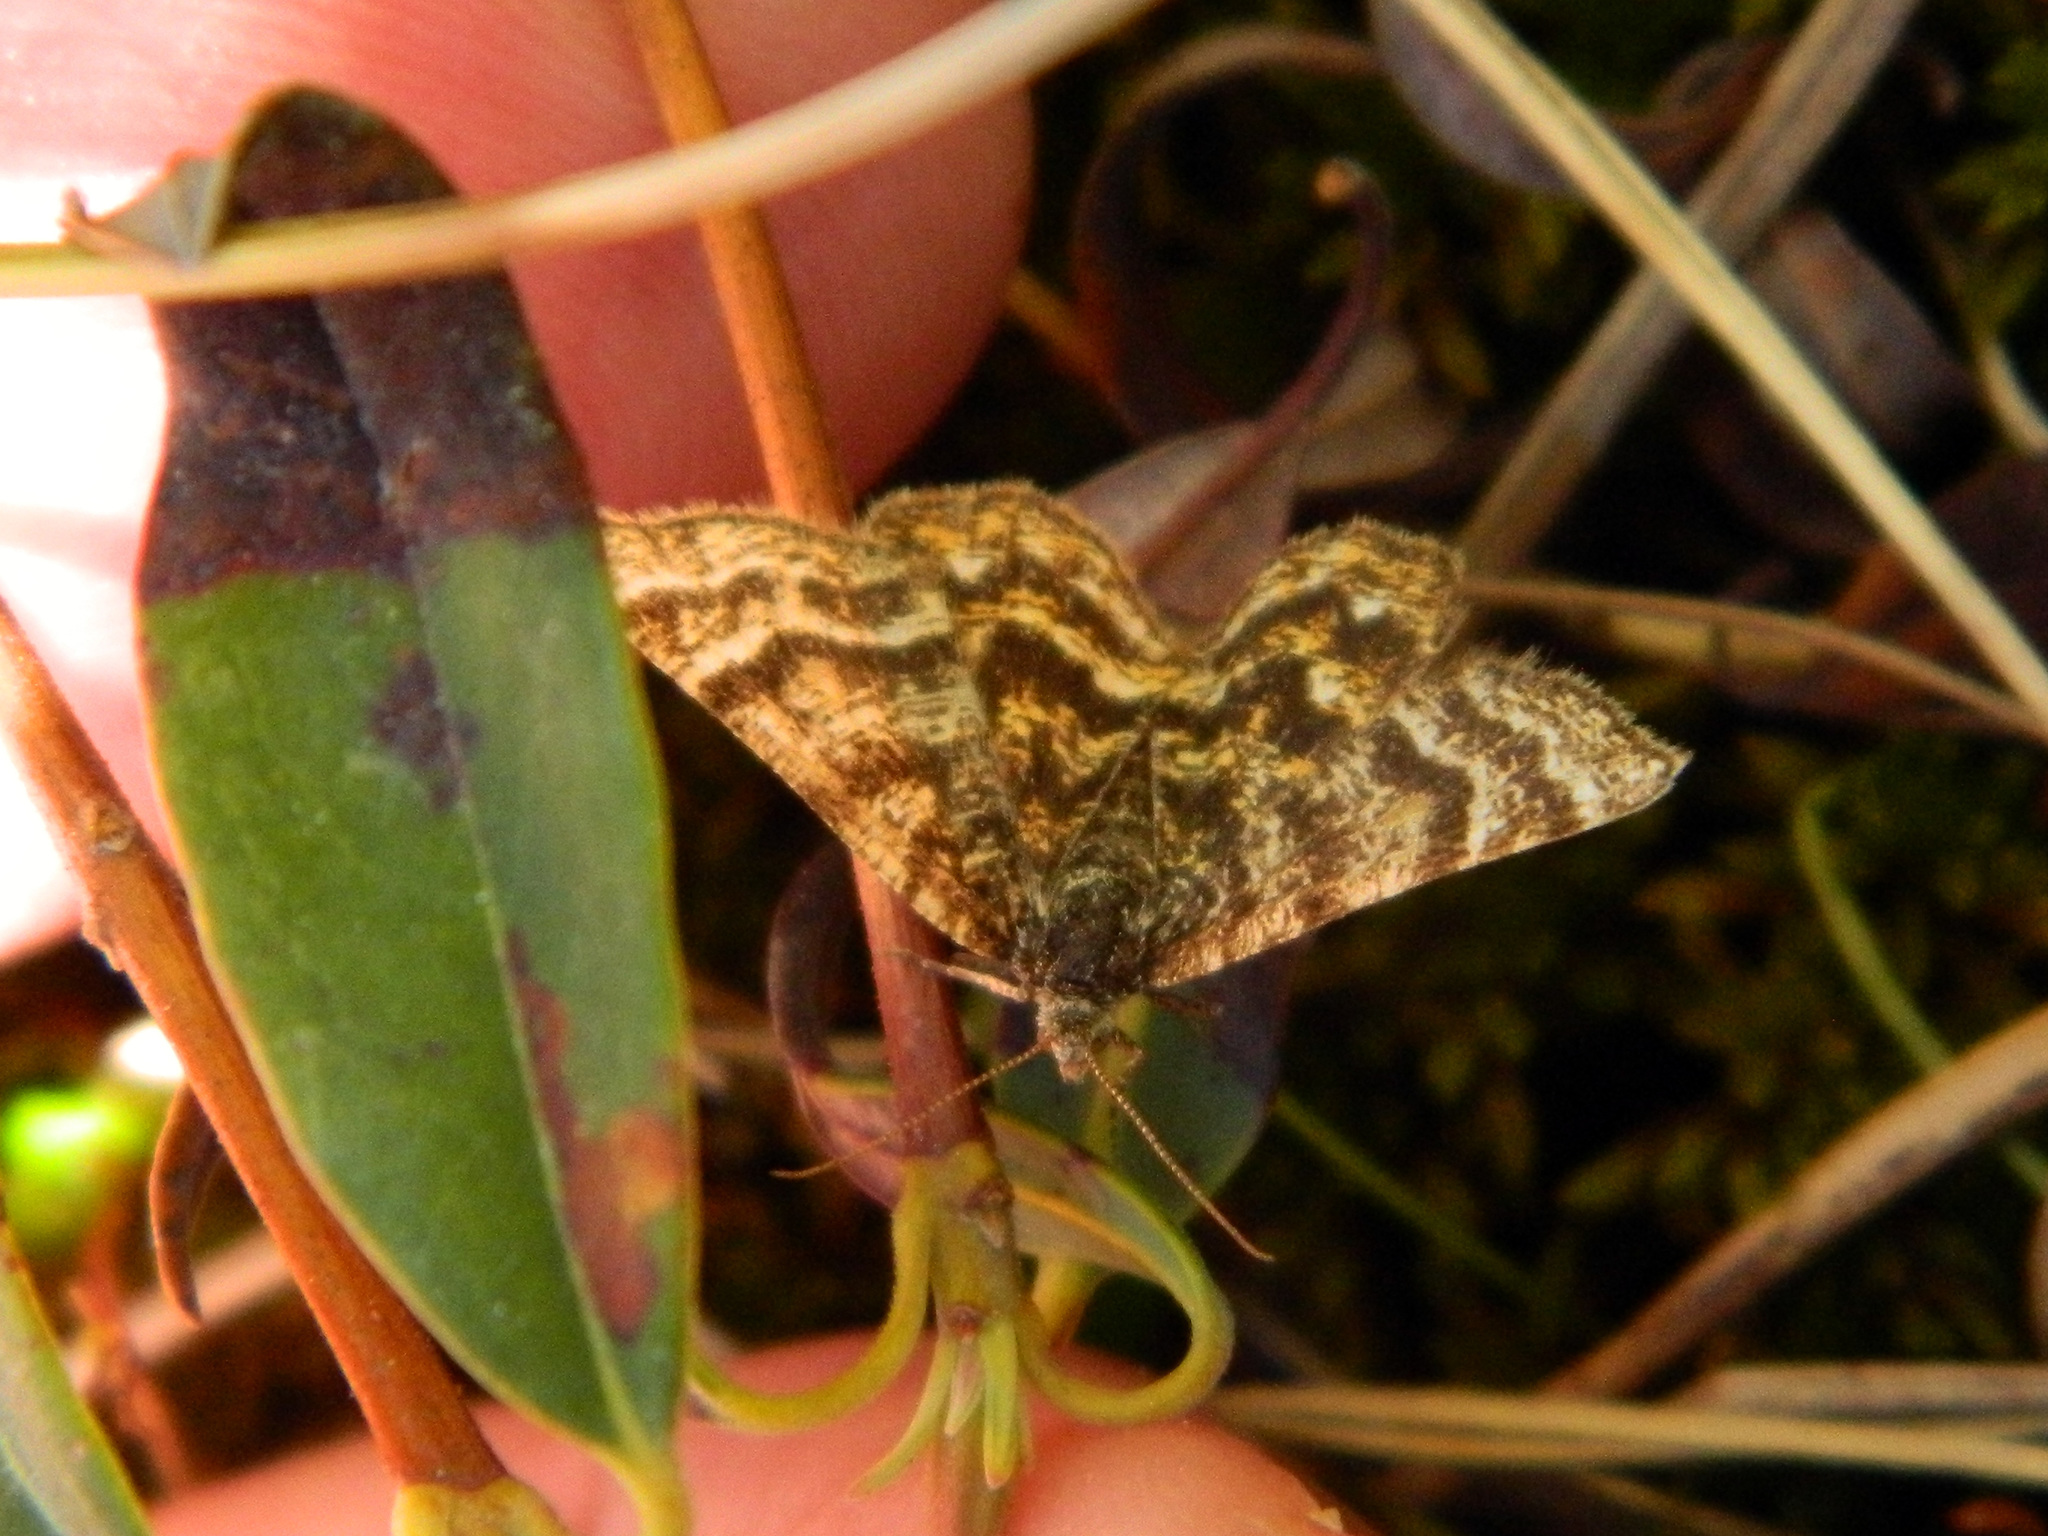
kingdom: Animalia
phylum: Arthropoda
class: Insecta
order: Lepidoptera
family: Geometridae
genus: Macaria
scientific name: Macaria truncataria
